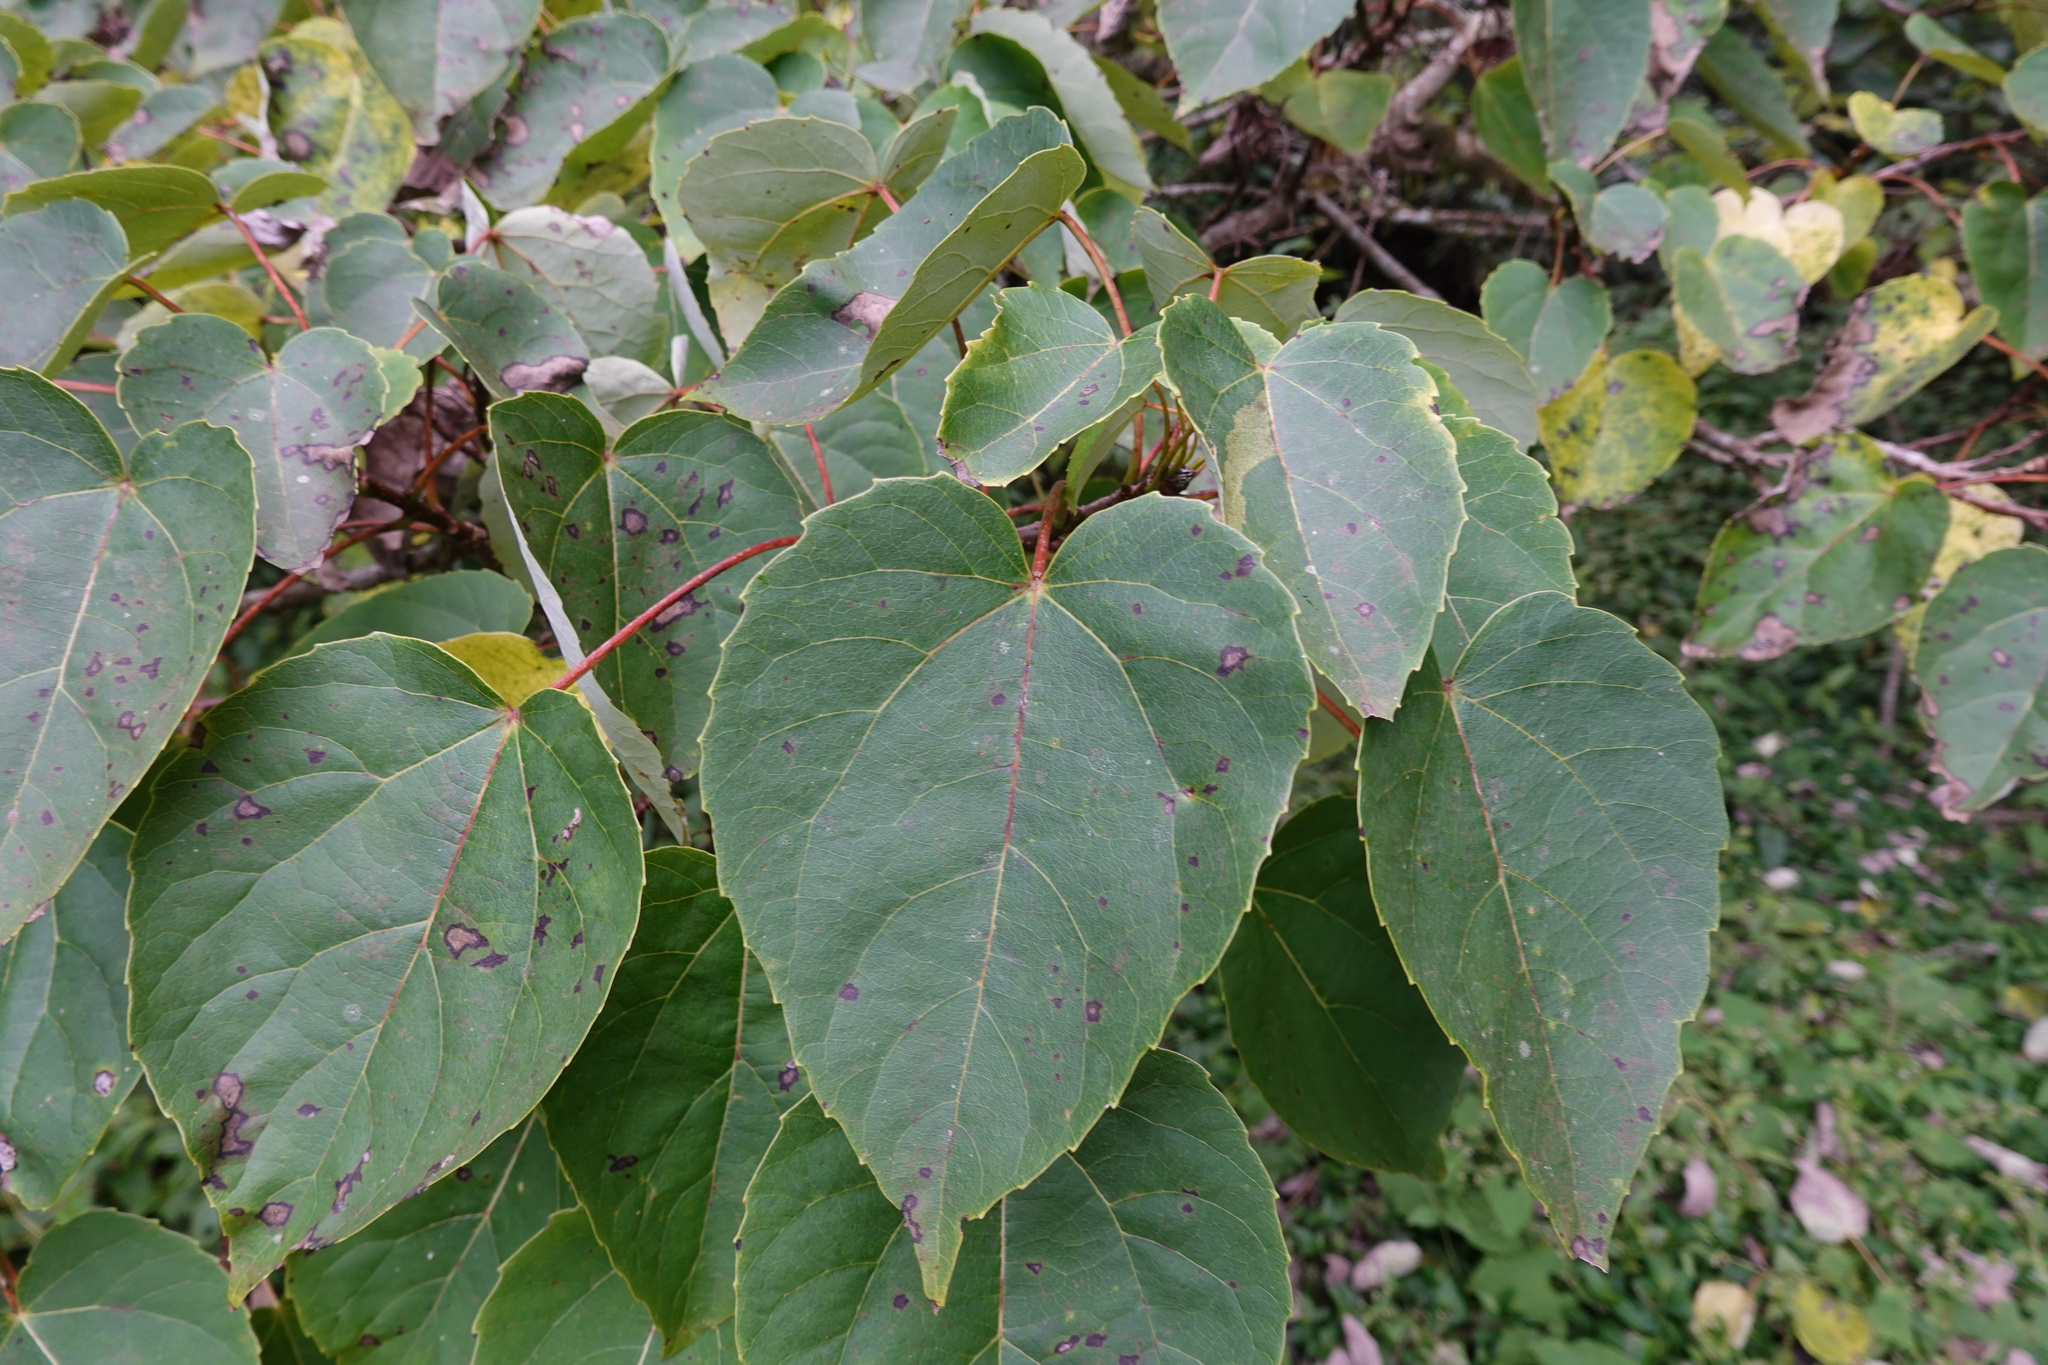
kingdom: Plantae
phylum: Tracheophyta
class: Magnoliopsida
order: Malpighiales
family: Salicaceae
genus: Idesia
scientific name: Idesia polycarpa
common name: Idesia tree
